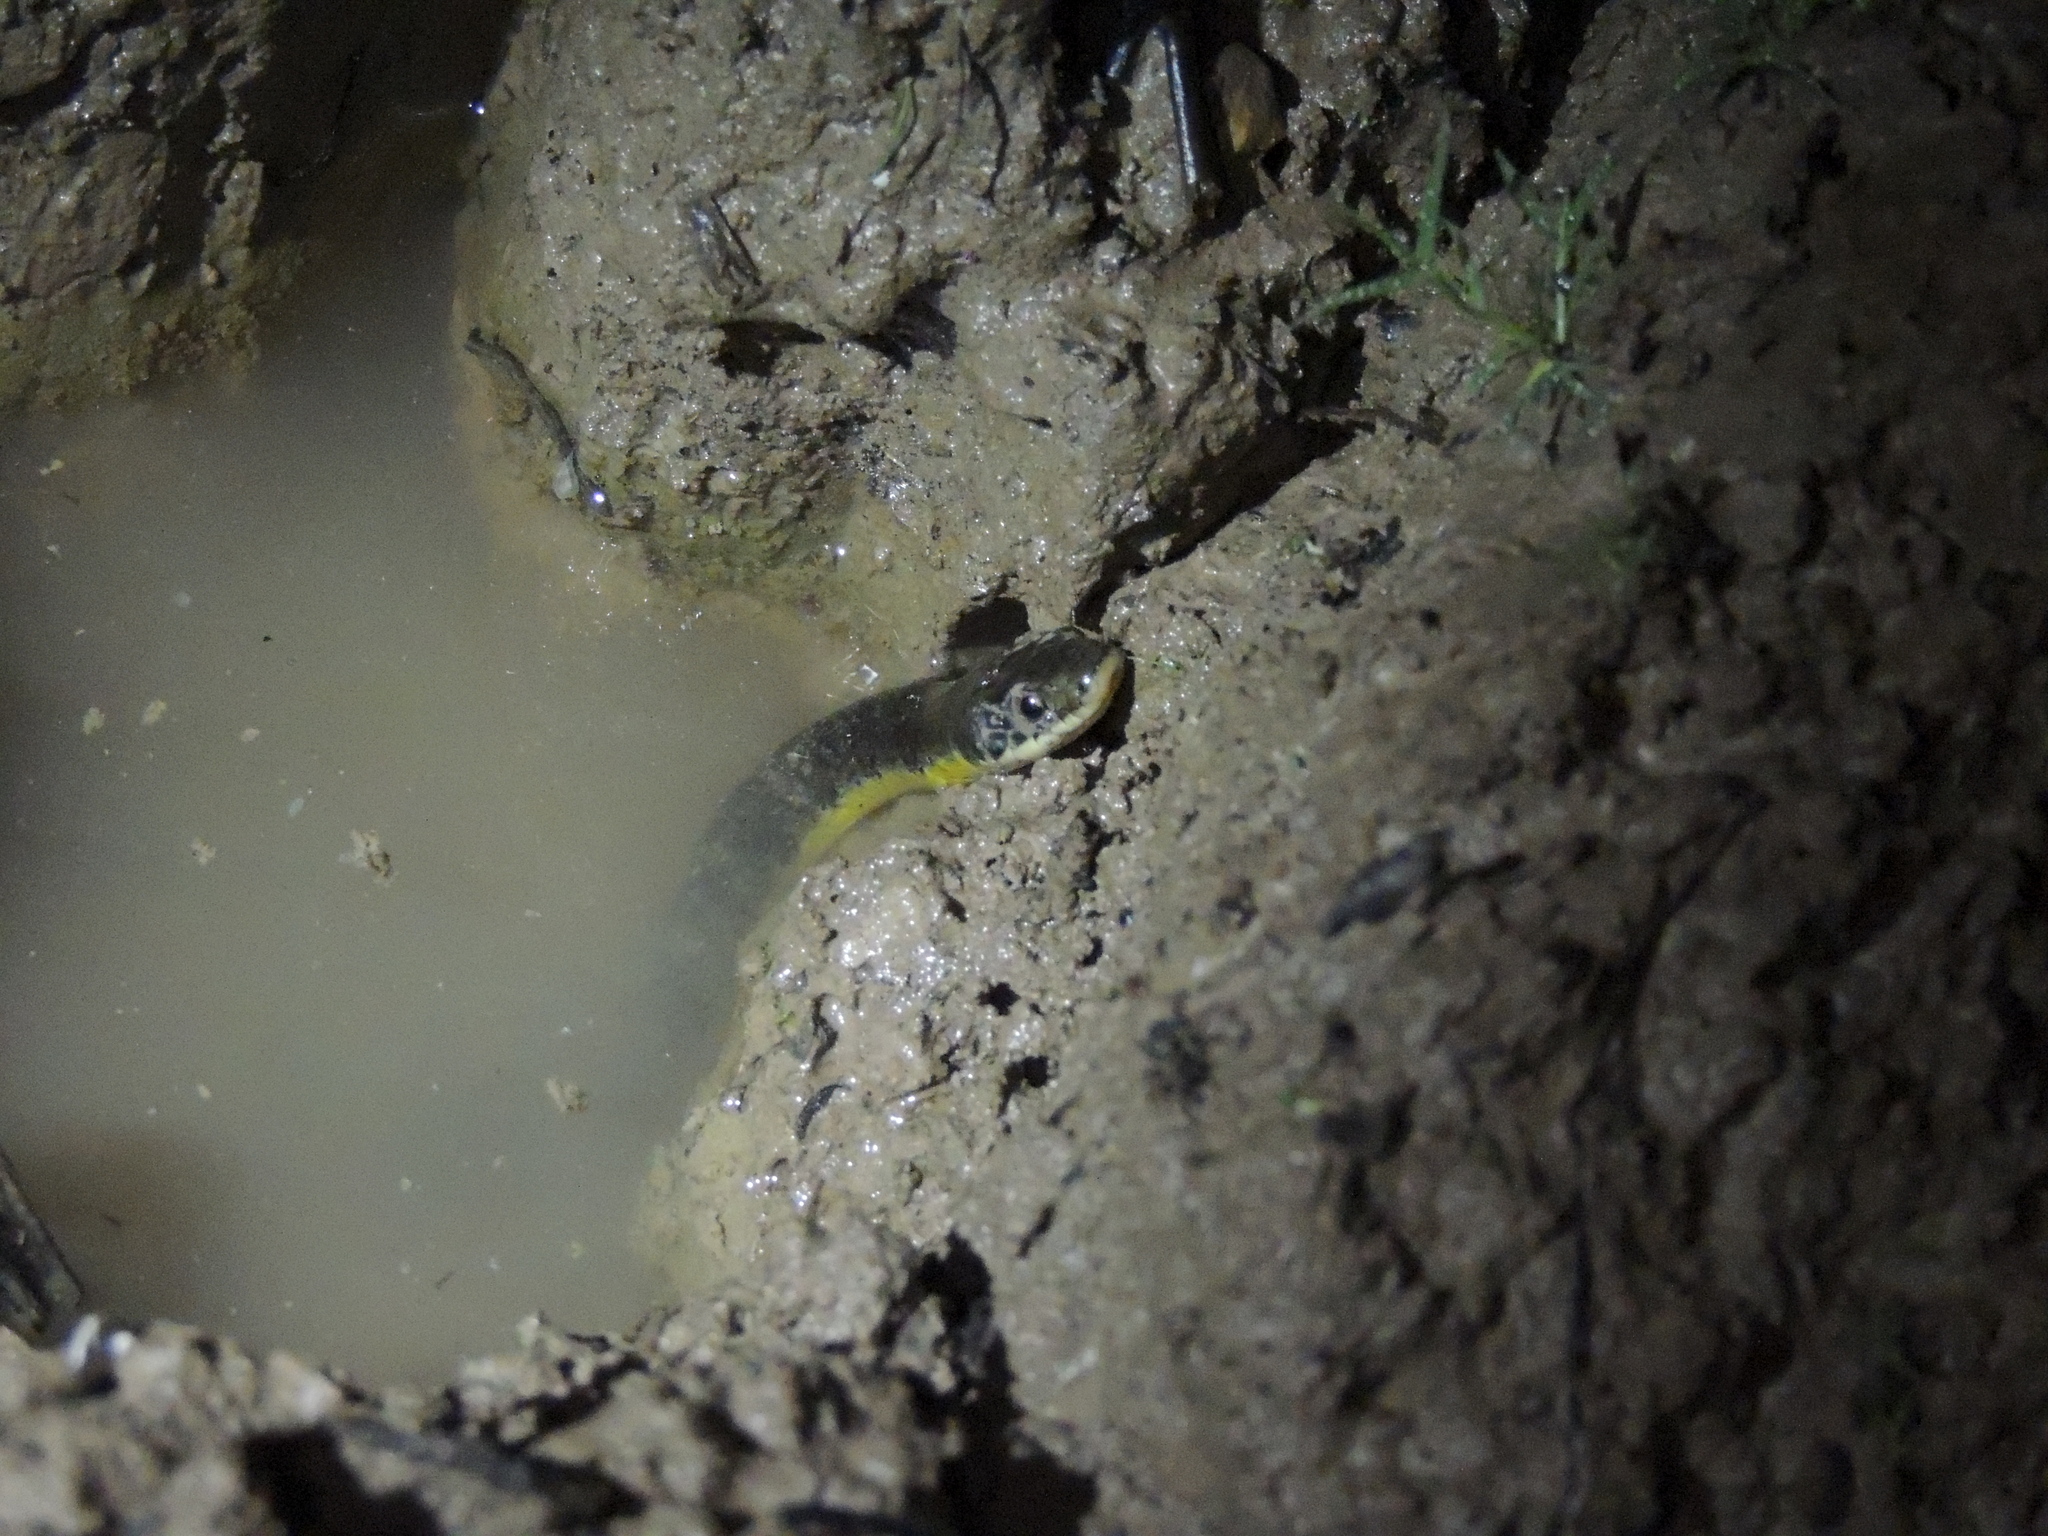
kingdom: Animalia
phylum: Chordata
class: Squamata
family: Colubridae
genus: Erythrolamprus
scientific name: Erythrolamprus poecilogyrus
